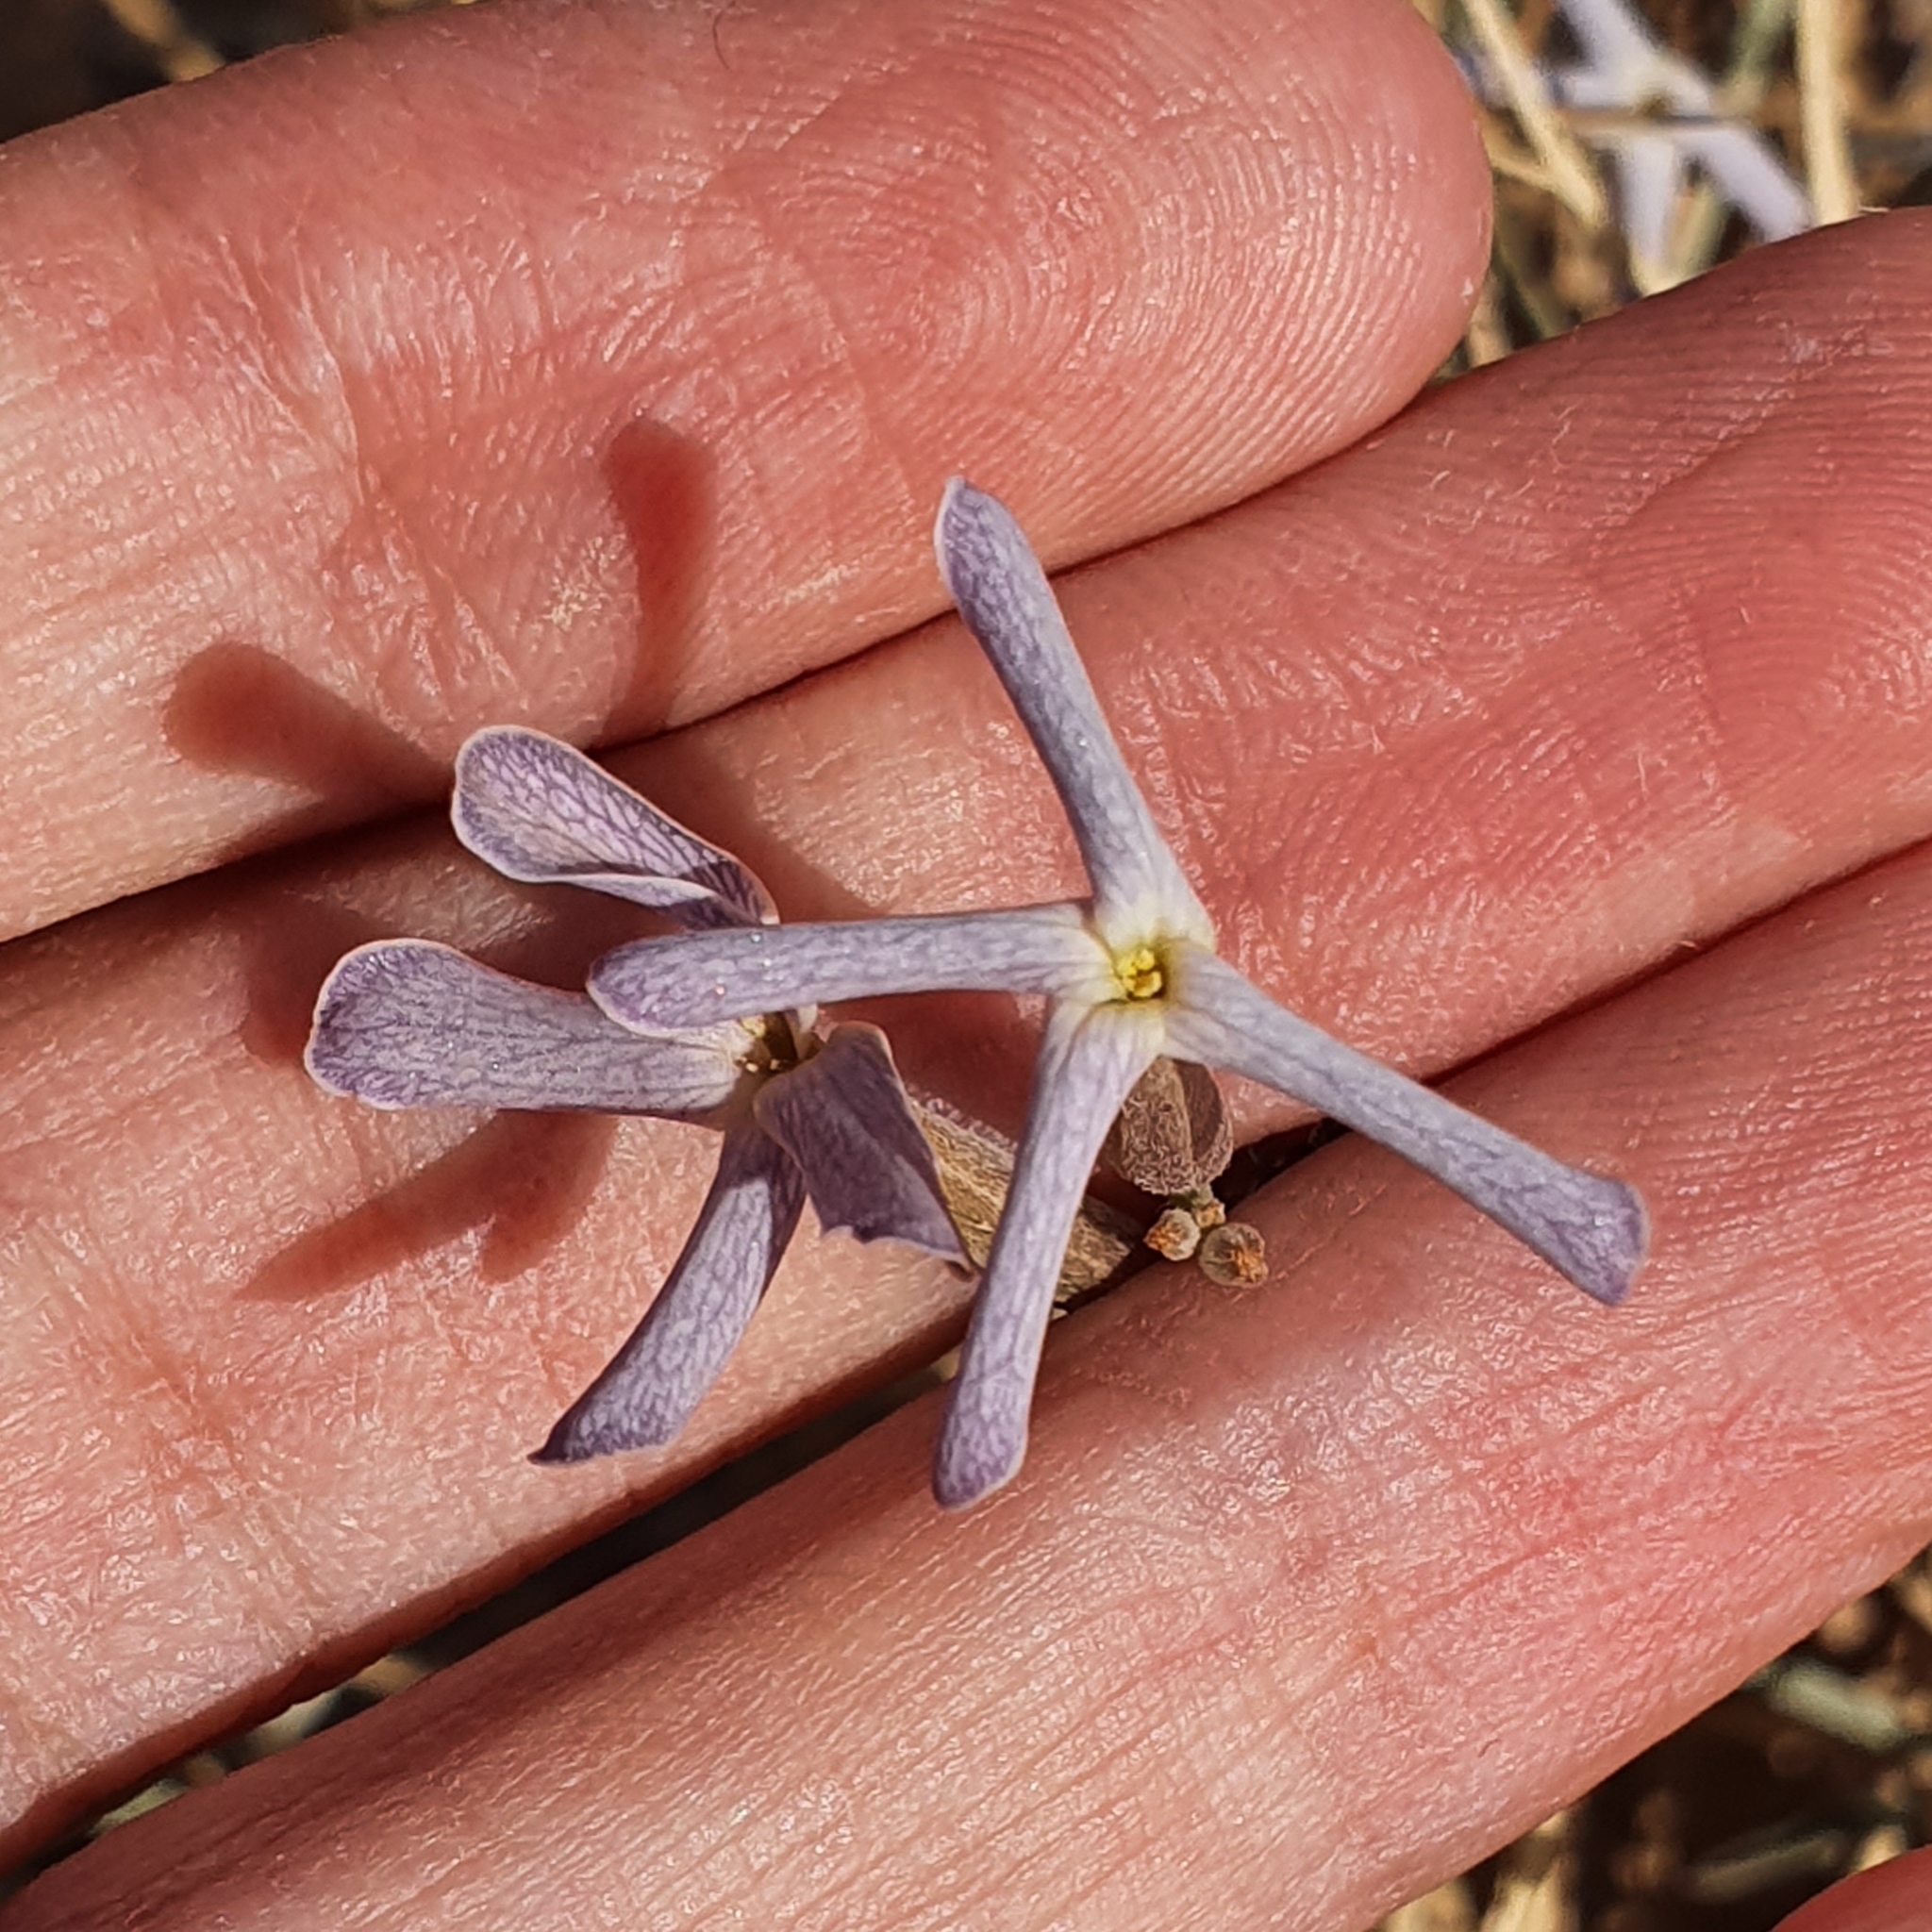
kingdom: Plantae
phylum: Tracheophyta
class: Magnoliopsida
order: Brassicales
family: Brassicaceae
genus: Farsetia
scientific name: Farsetia aegyptia
